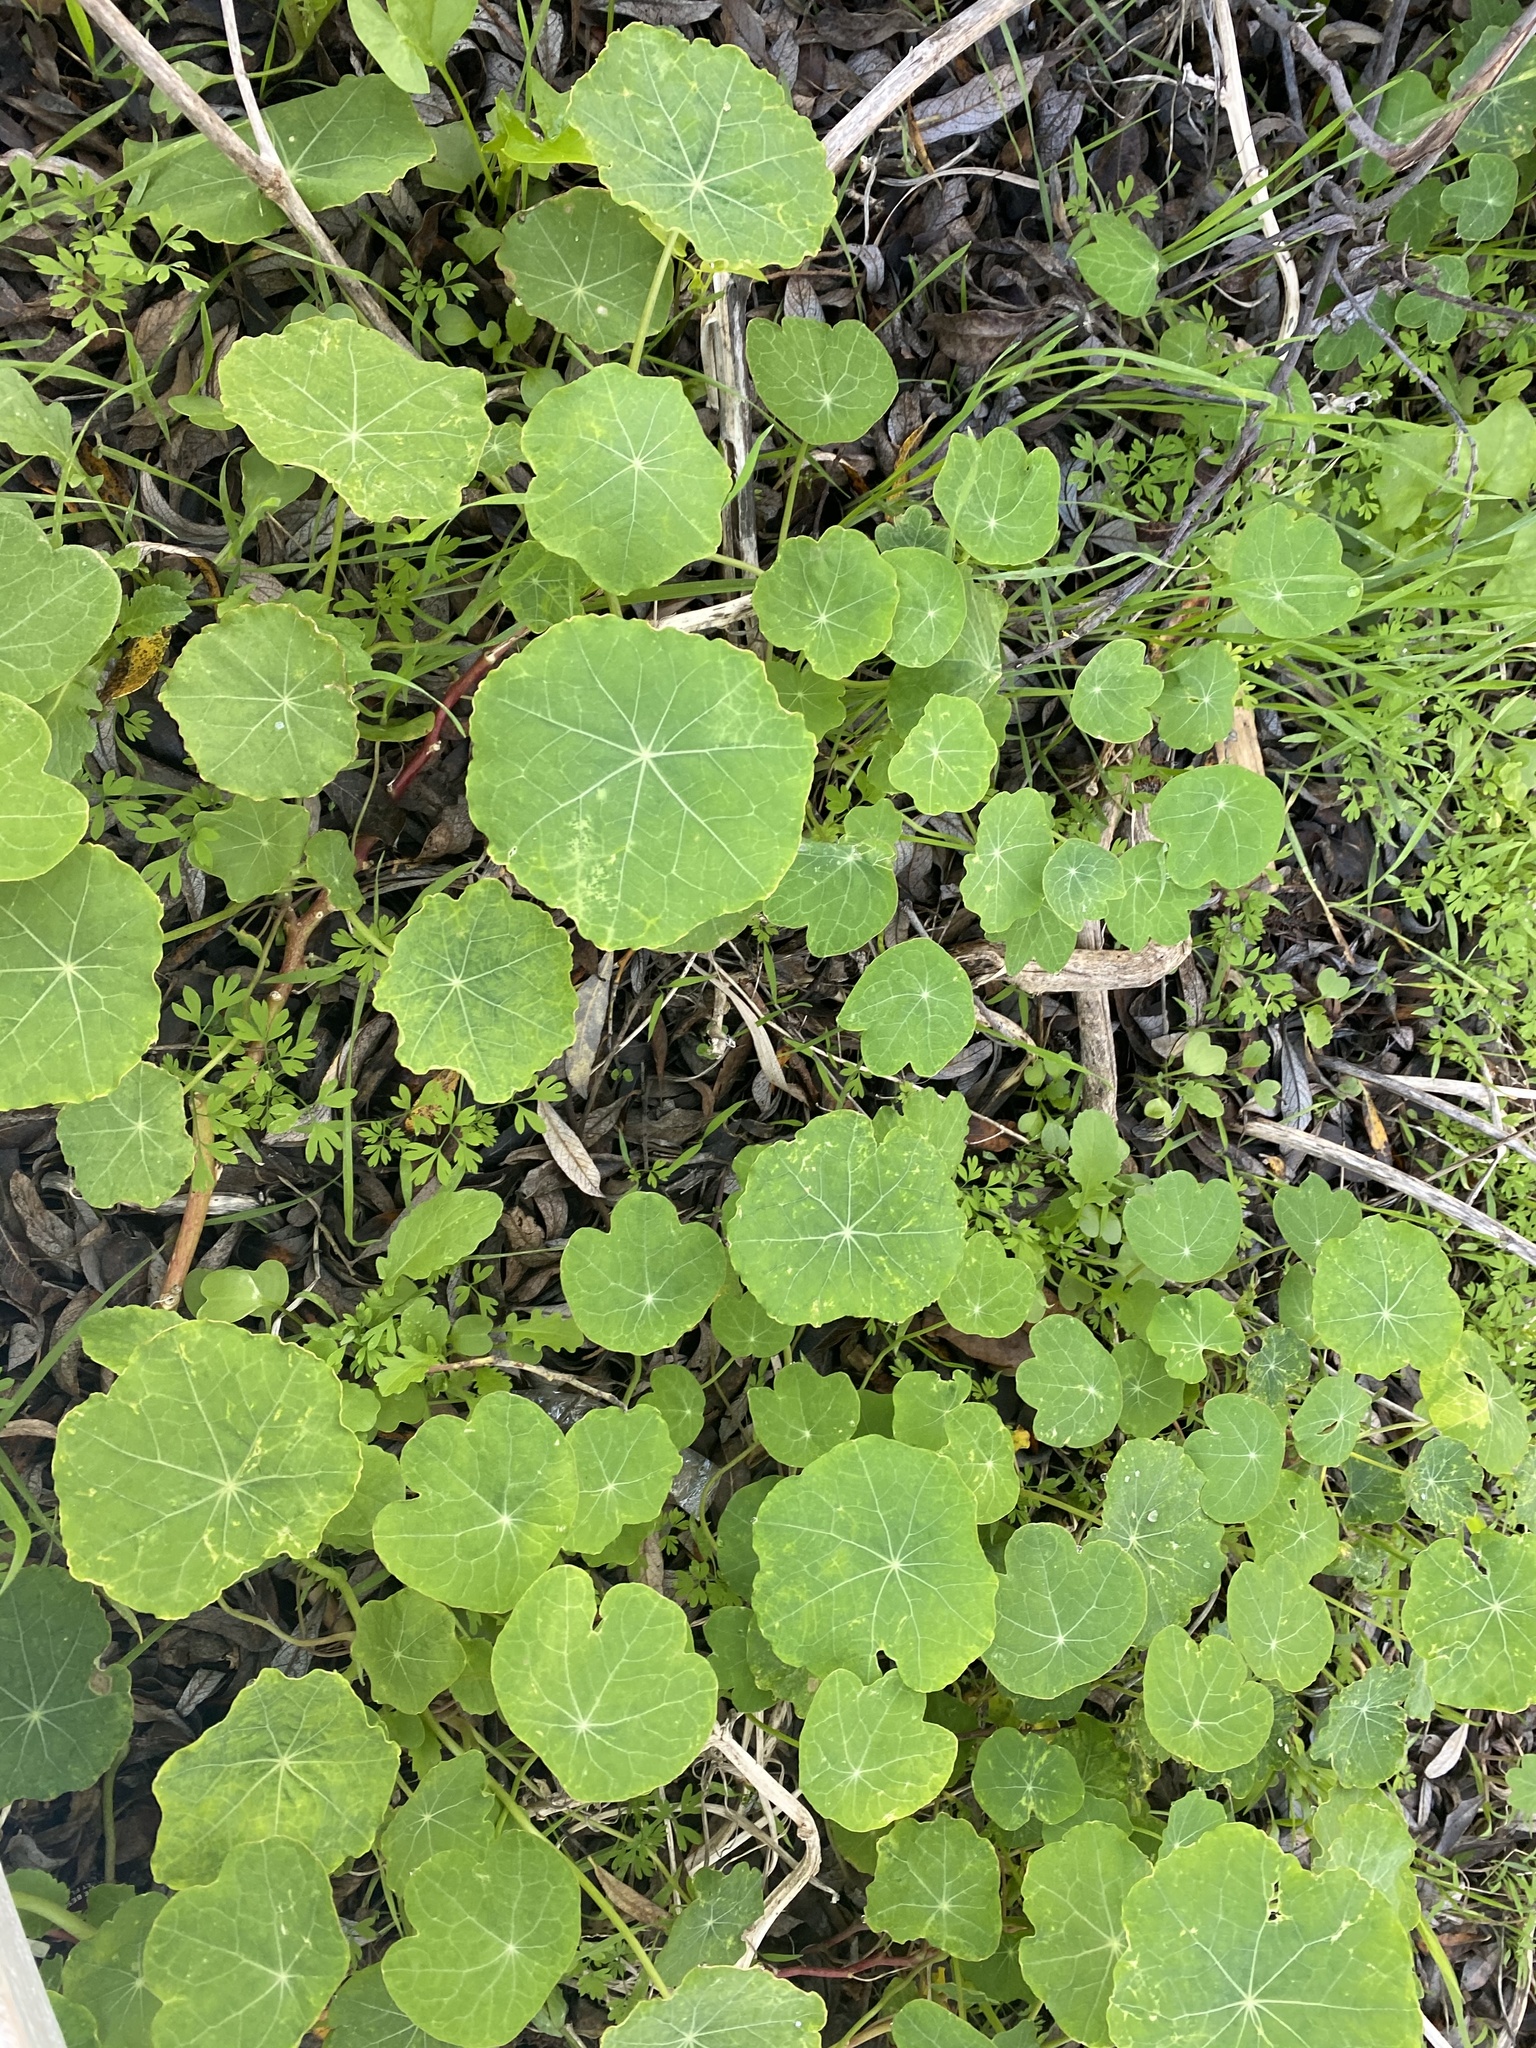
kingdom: Plantae
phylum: Tracheophyta
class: Magnoliopsida
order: Brassicales
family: Tropaeolaceae
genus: Tropaeolum
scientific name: Tropaeolum majus
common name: Nasturtium
